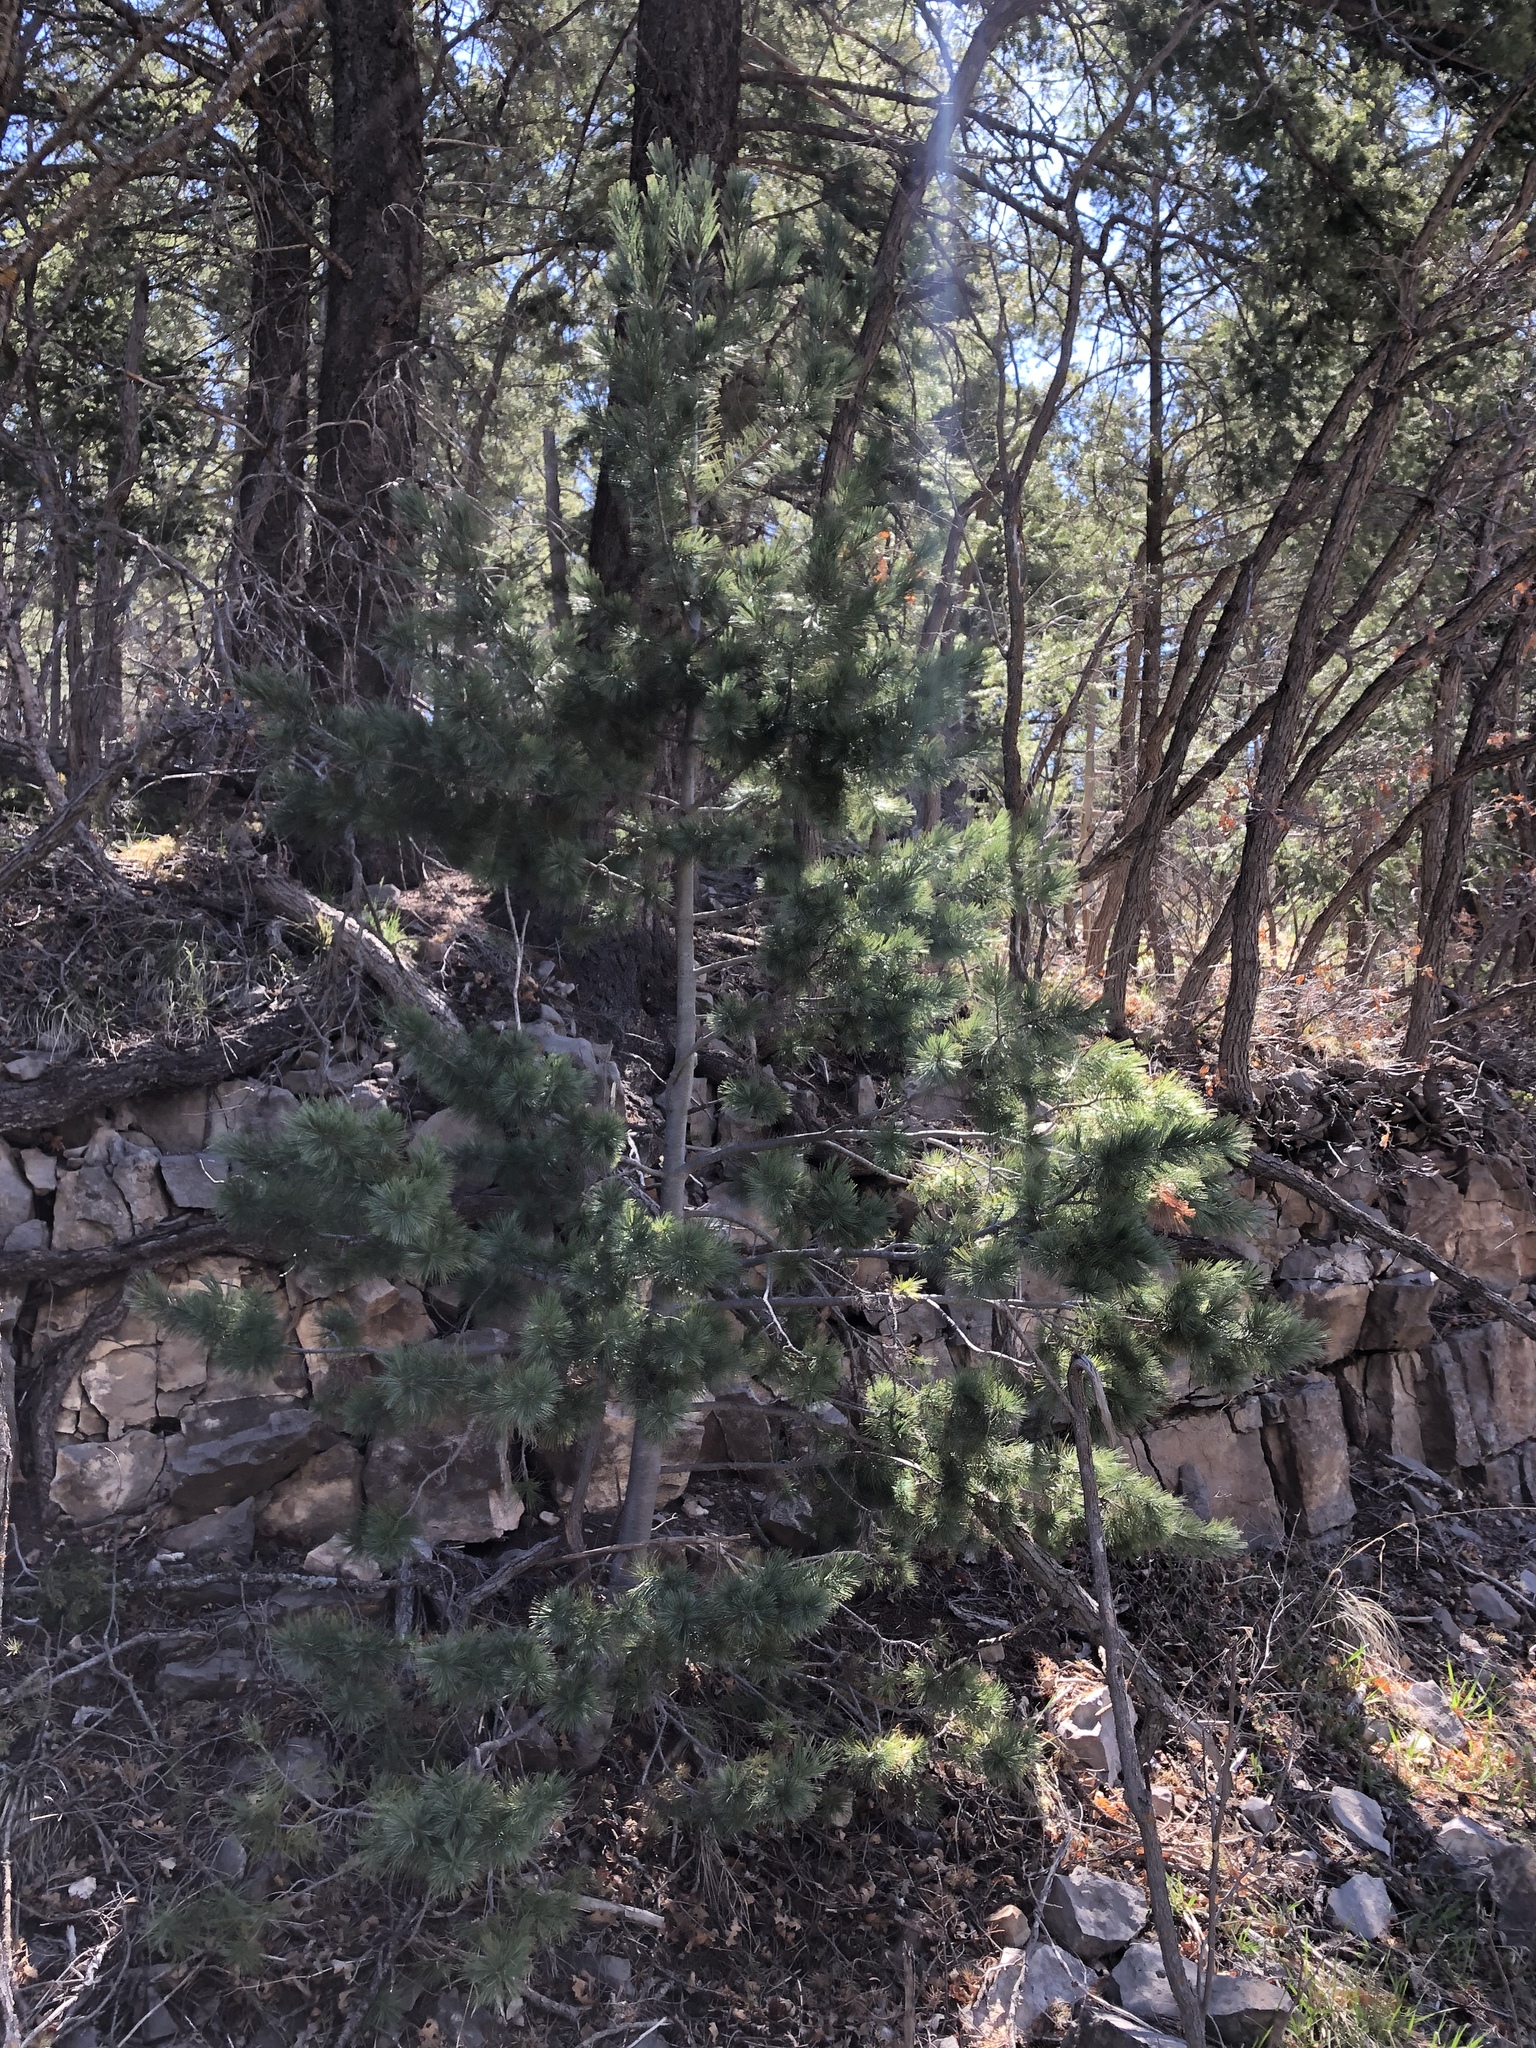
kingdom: Plantae
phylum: Tracheophyta
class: Pinopsida
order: Pinales
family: Pinaceae
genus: Pinus
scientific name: Pinus strobiformis
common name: Southwestern white pine
